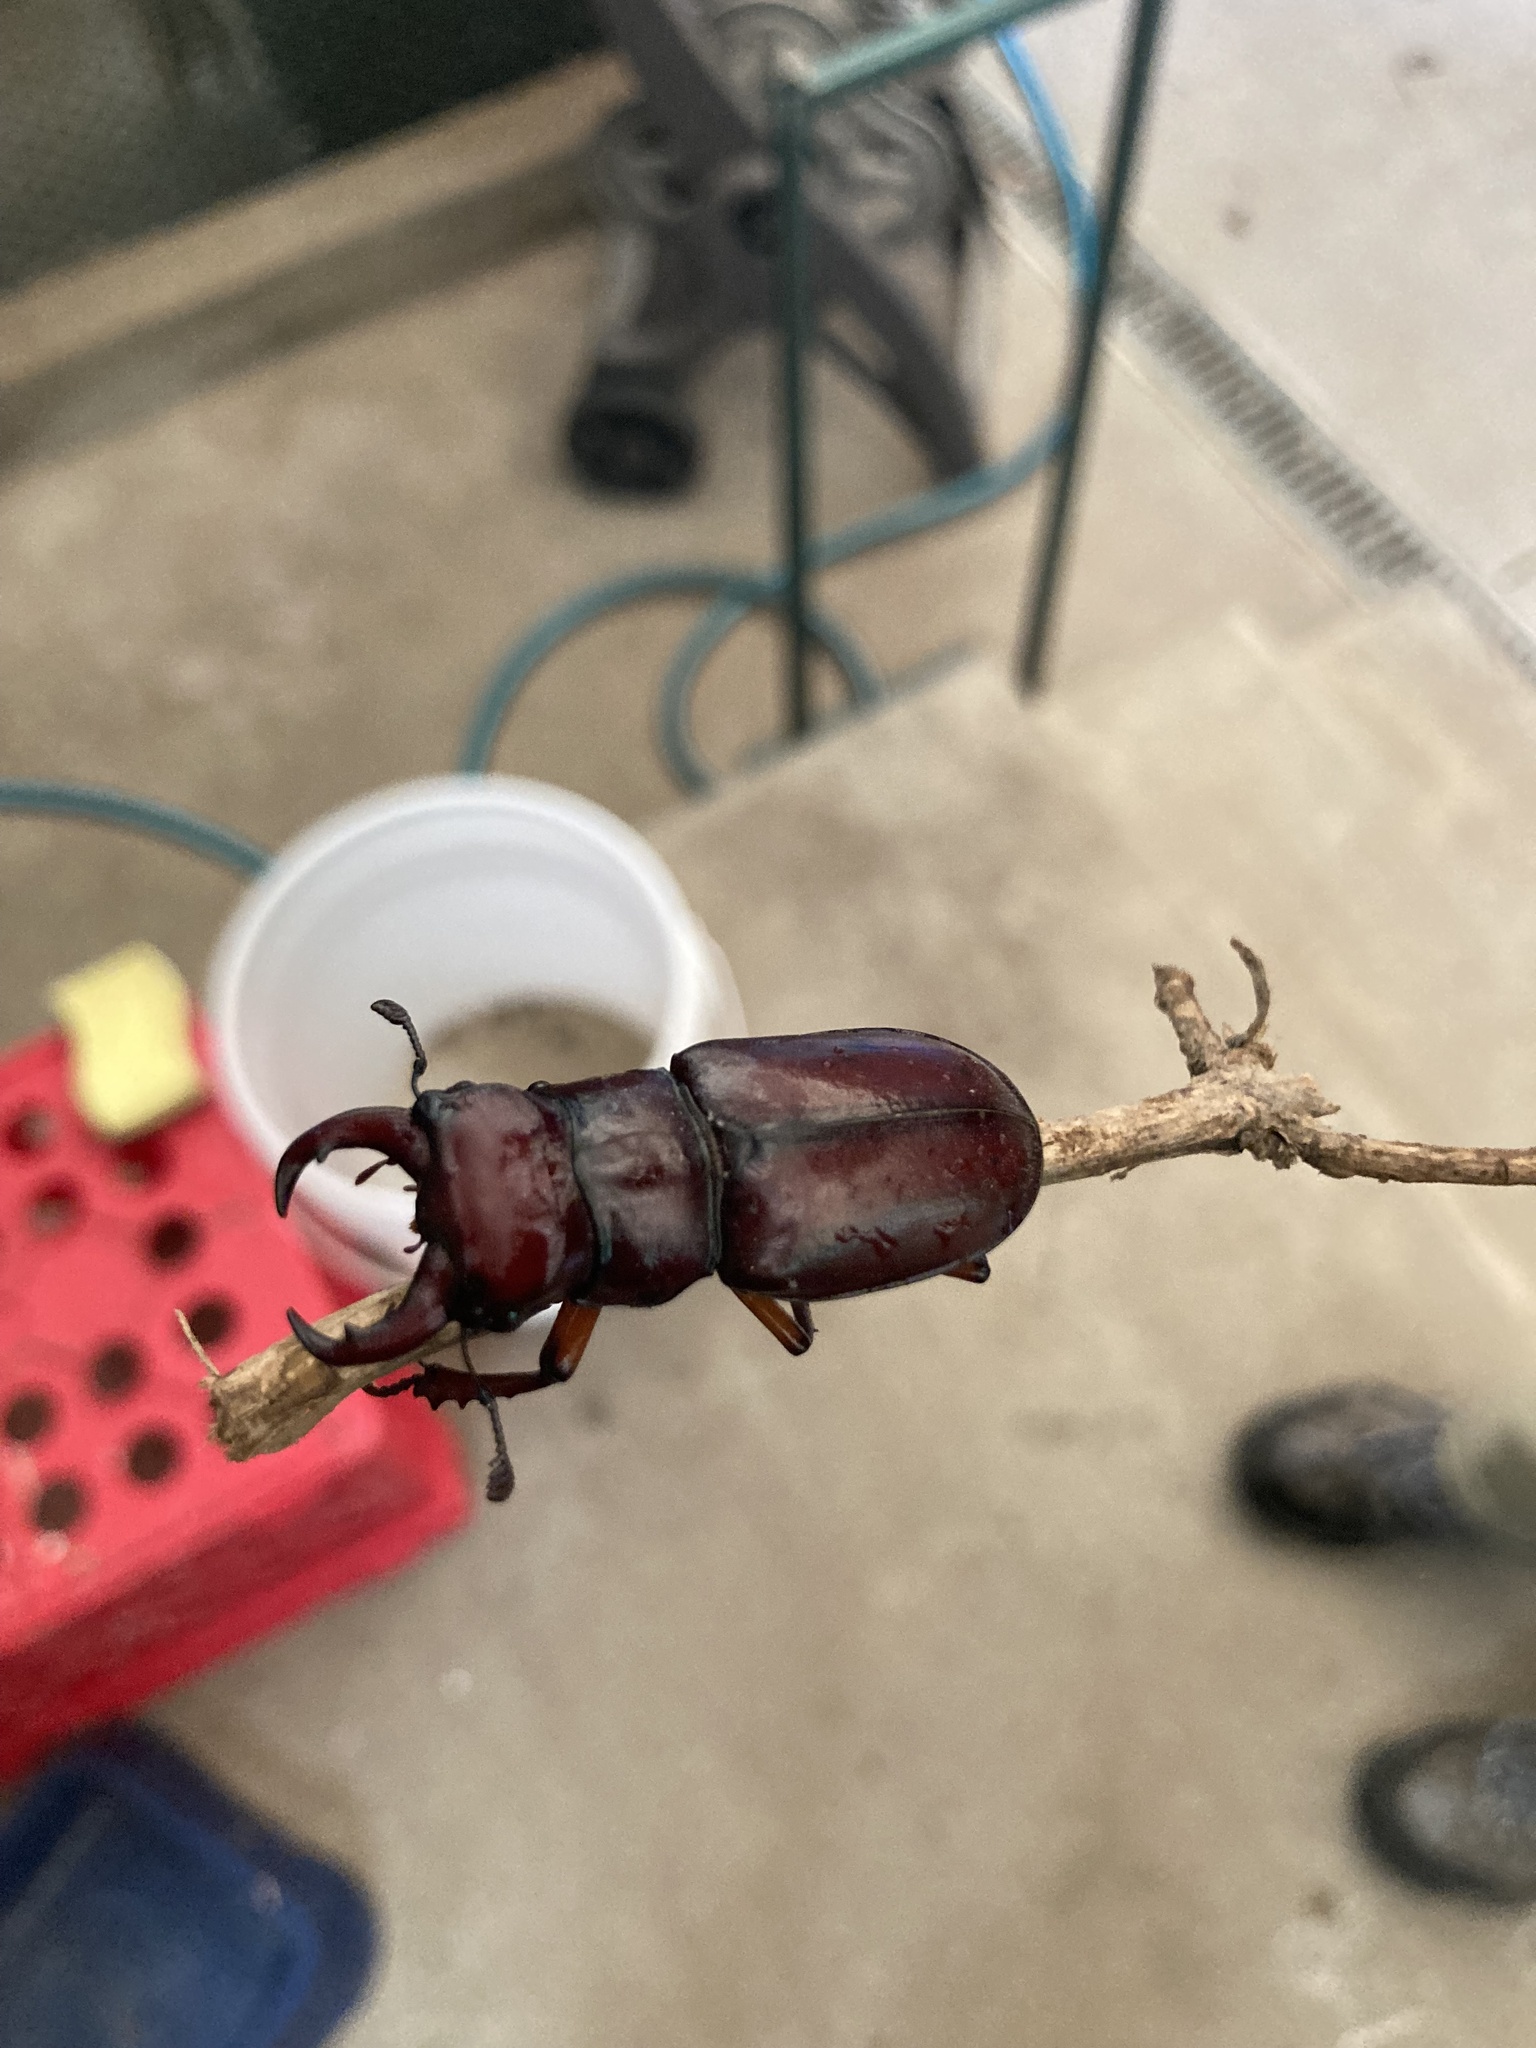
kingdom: Animalia
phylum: Arthropoda
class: Insecta
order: Coleoptera
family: Lucanidae
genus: Lucanus
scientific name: Lucanus capreolus
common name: Stag beetle
